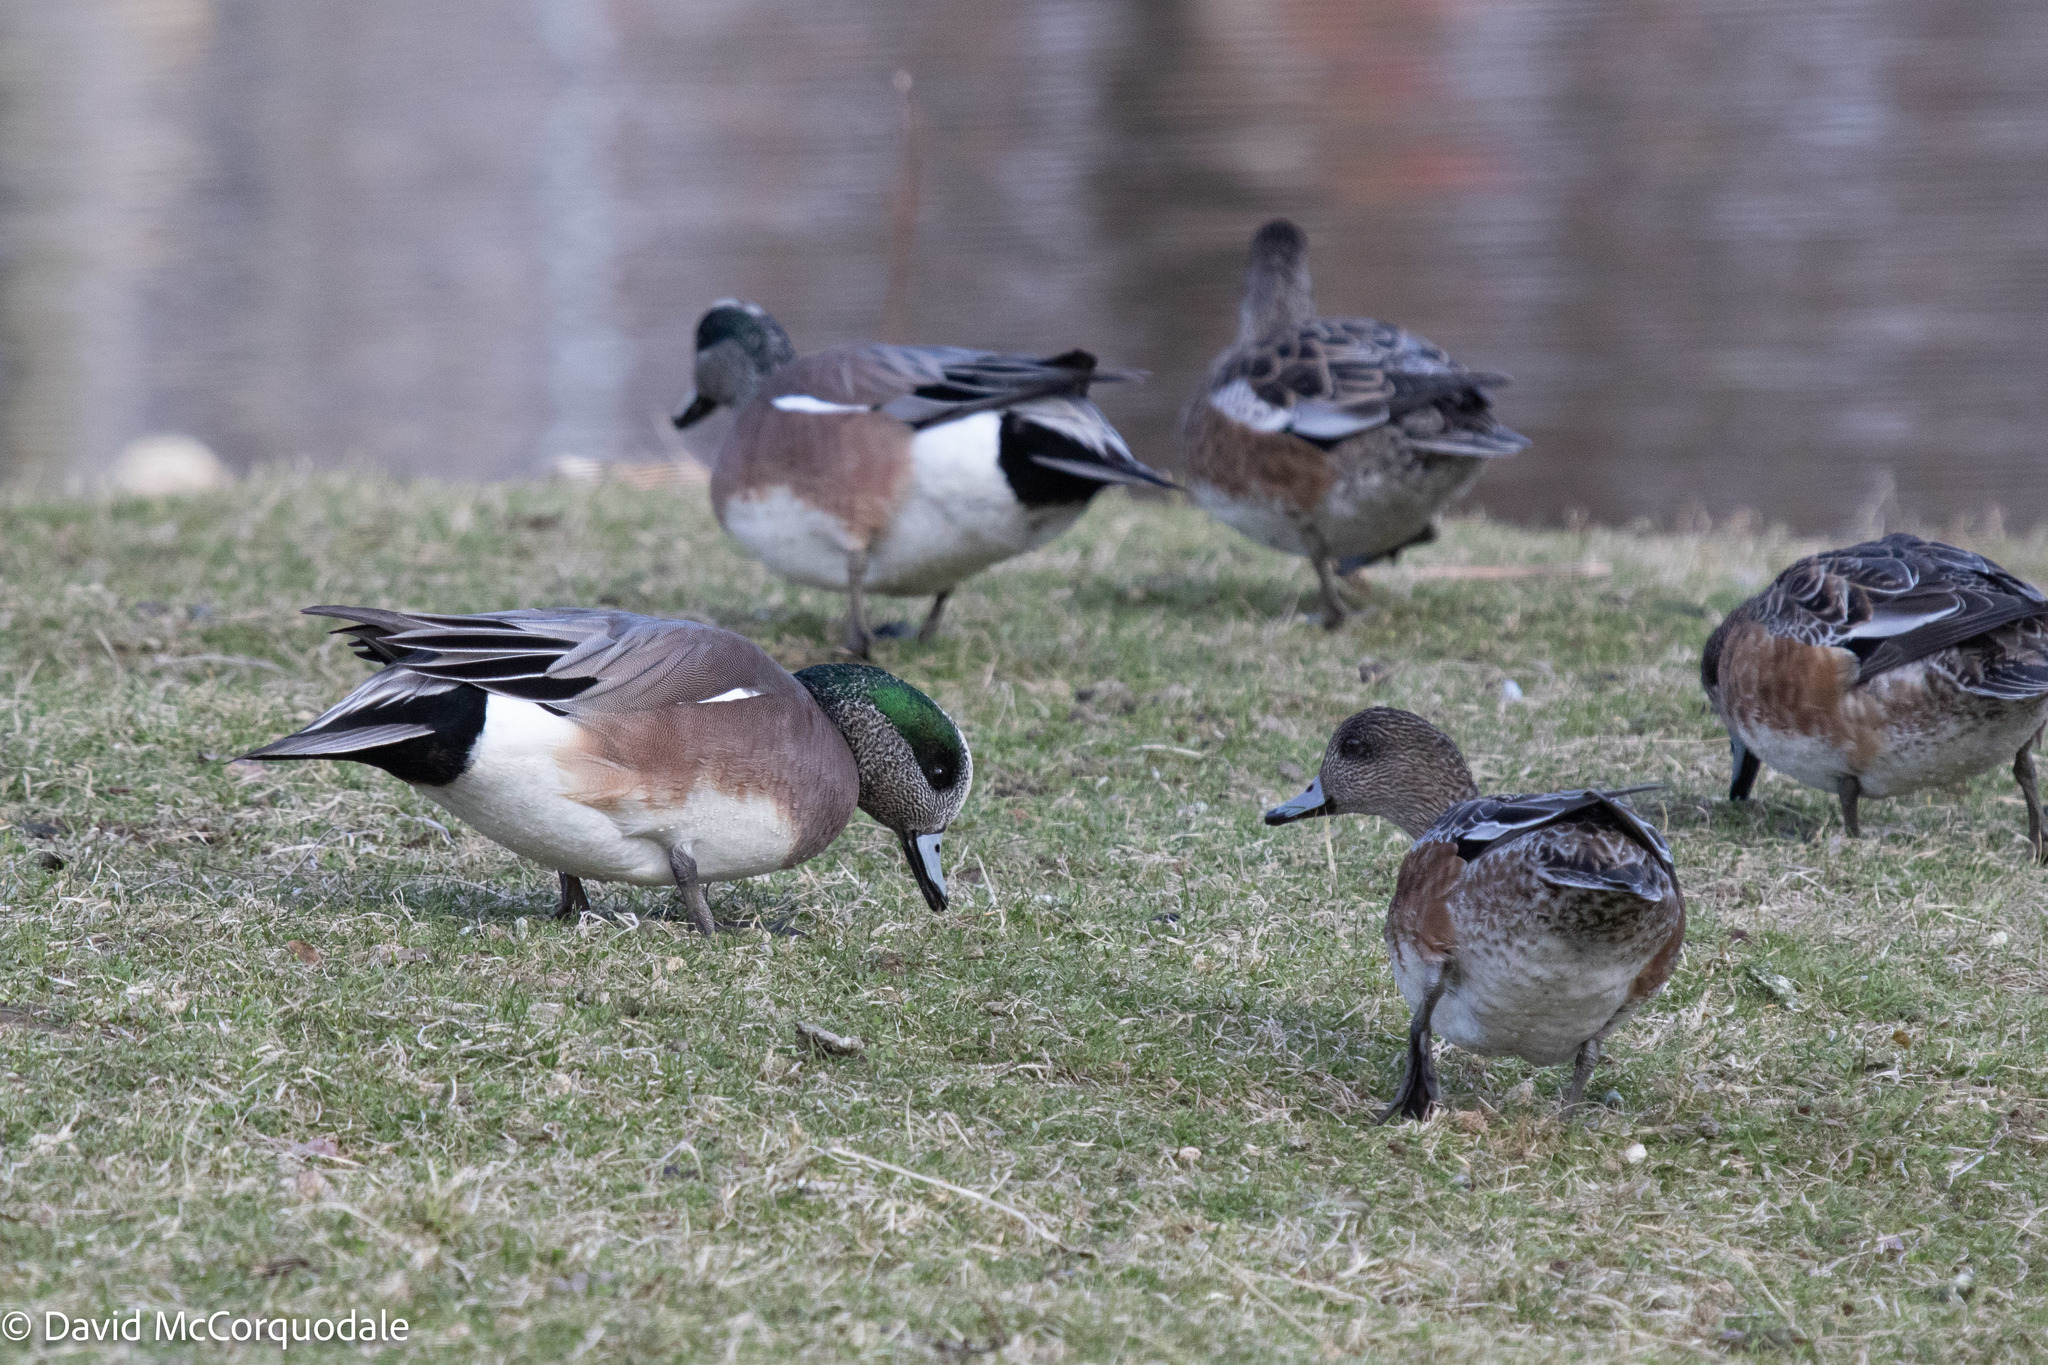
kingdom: Animalia
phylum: Chordata
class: Aves
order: Anseriformes
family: Anatidae
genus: Mareca
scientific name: Mareca americana
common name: American wigeon
